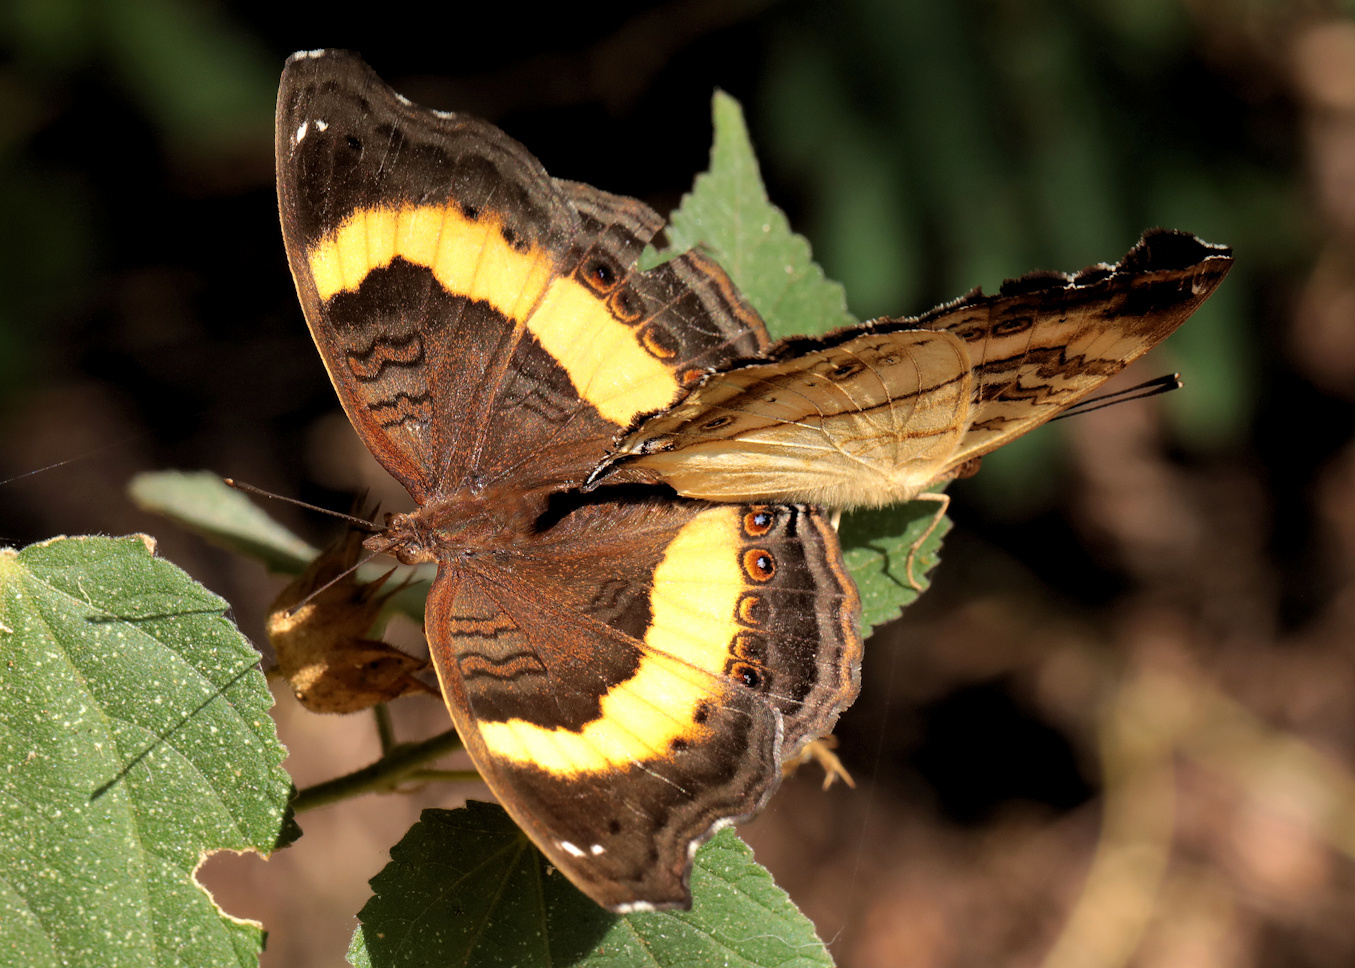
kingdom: Animalia
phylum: Arthropoda
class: Insecta
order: Lepidoptera
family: Nymphalidae
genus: Junonia
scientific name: Junonia terea
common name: Soldier pansy
